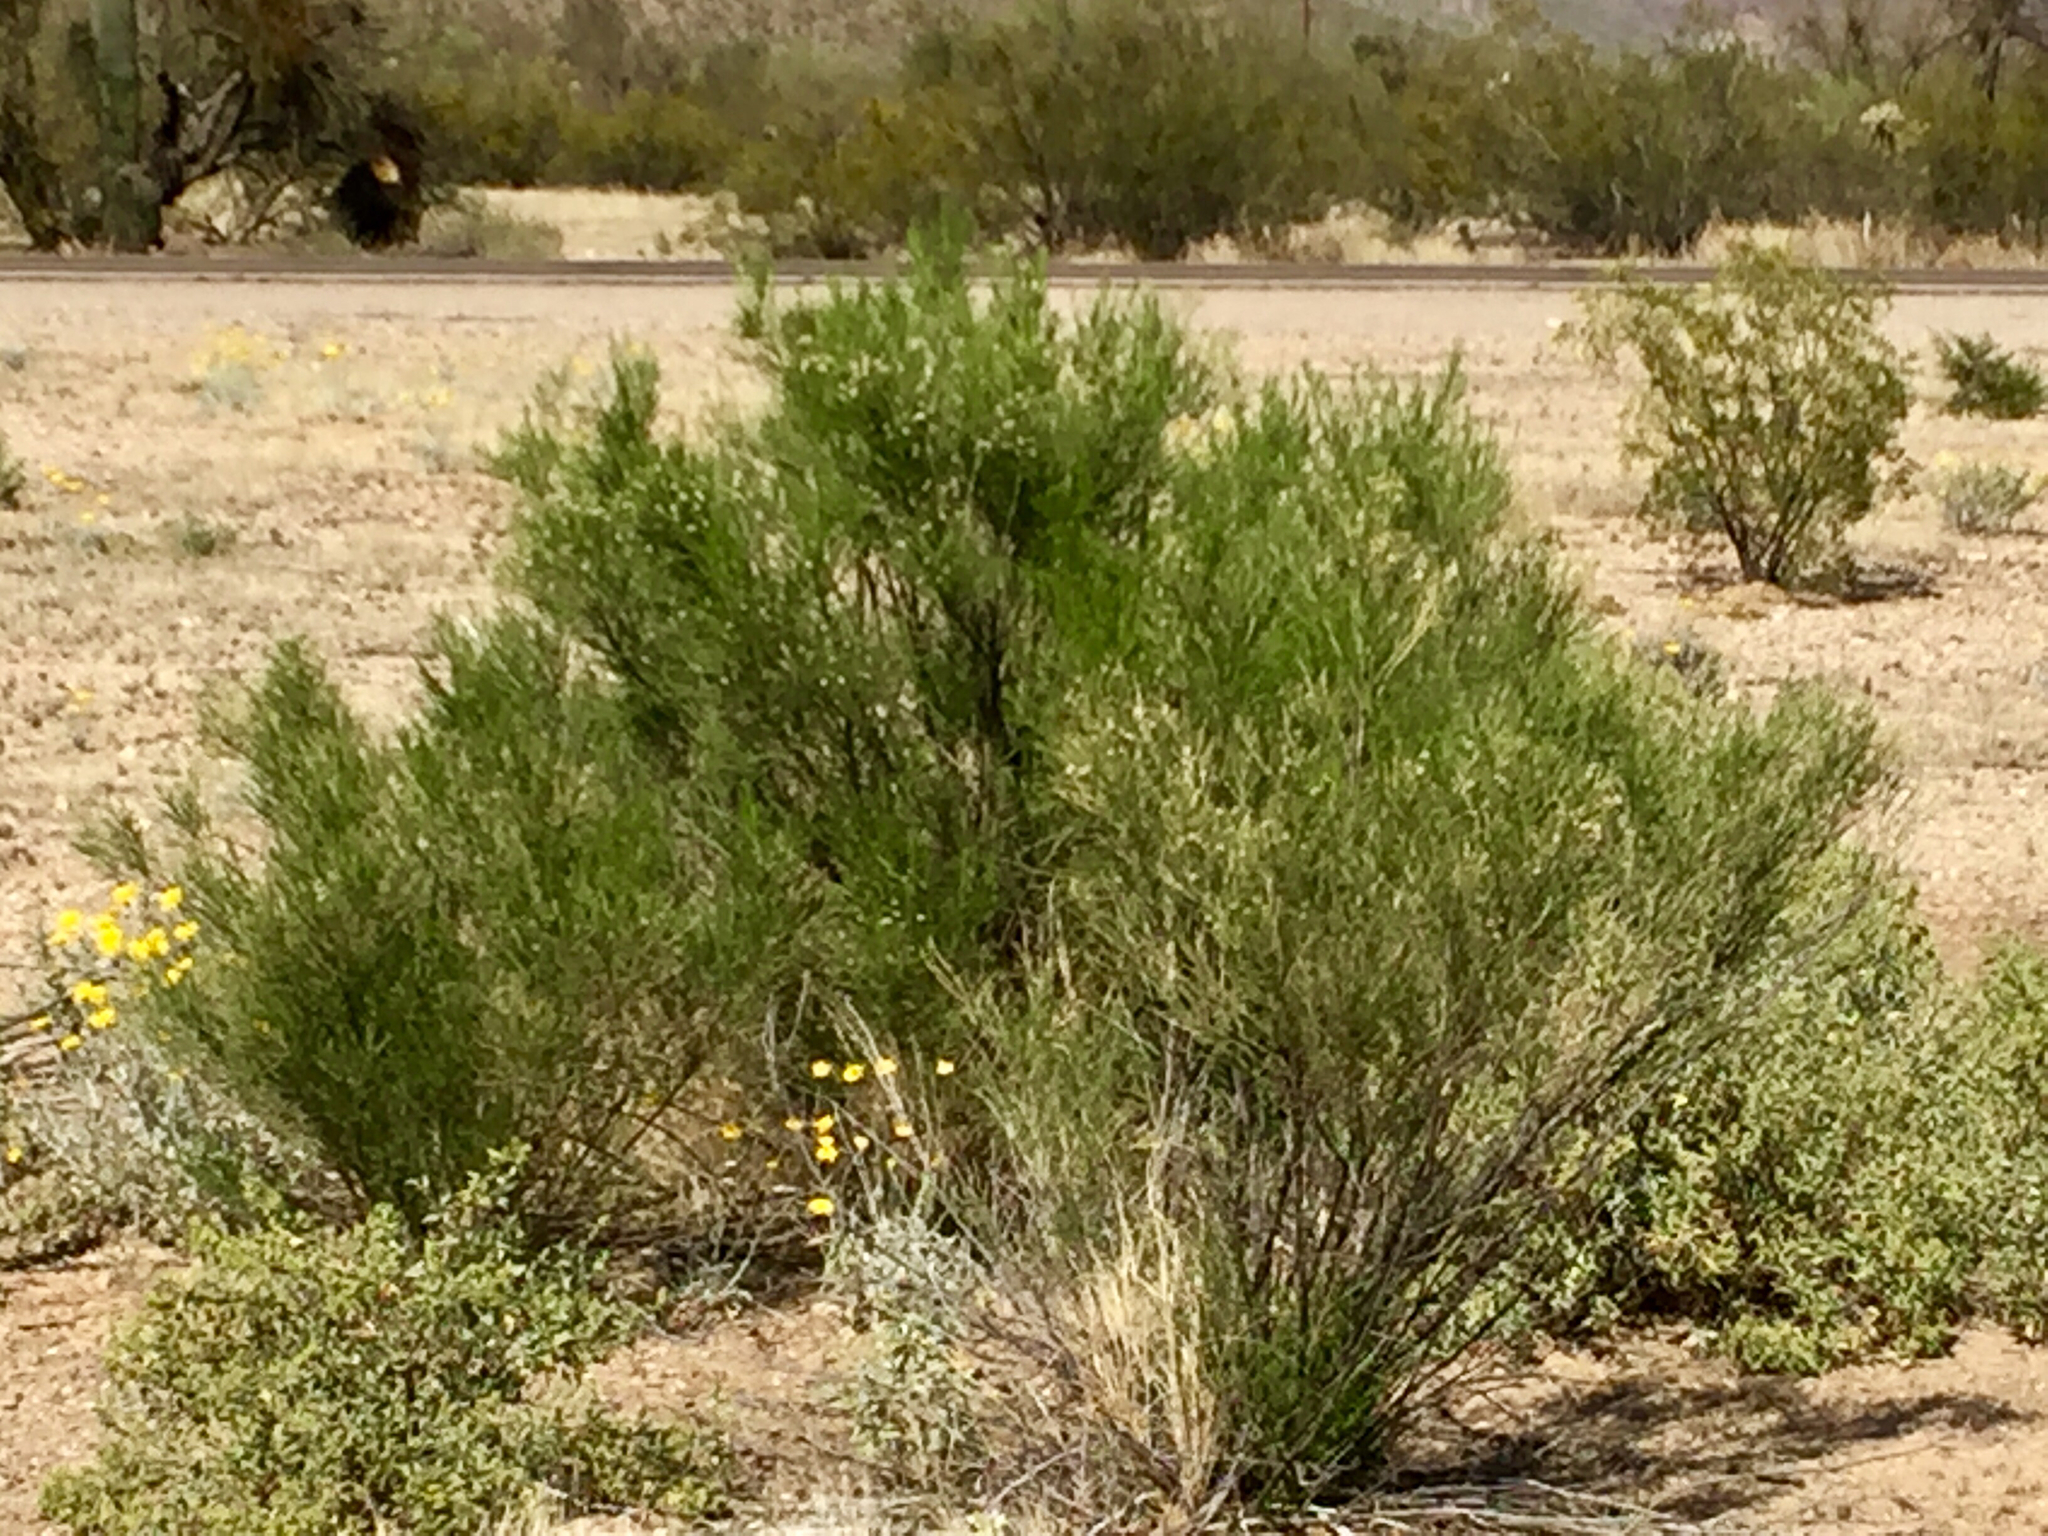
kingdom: Plantae
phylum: Tracheophyta
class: Magnoliopsida
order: Asterales
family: Asteraceae
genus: Baccharis
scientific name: Baccharis sarothroides
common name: Desert-broom
